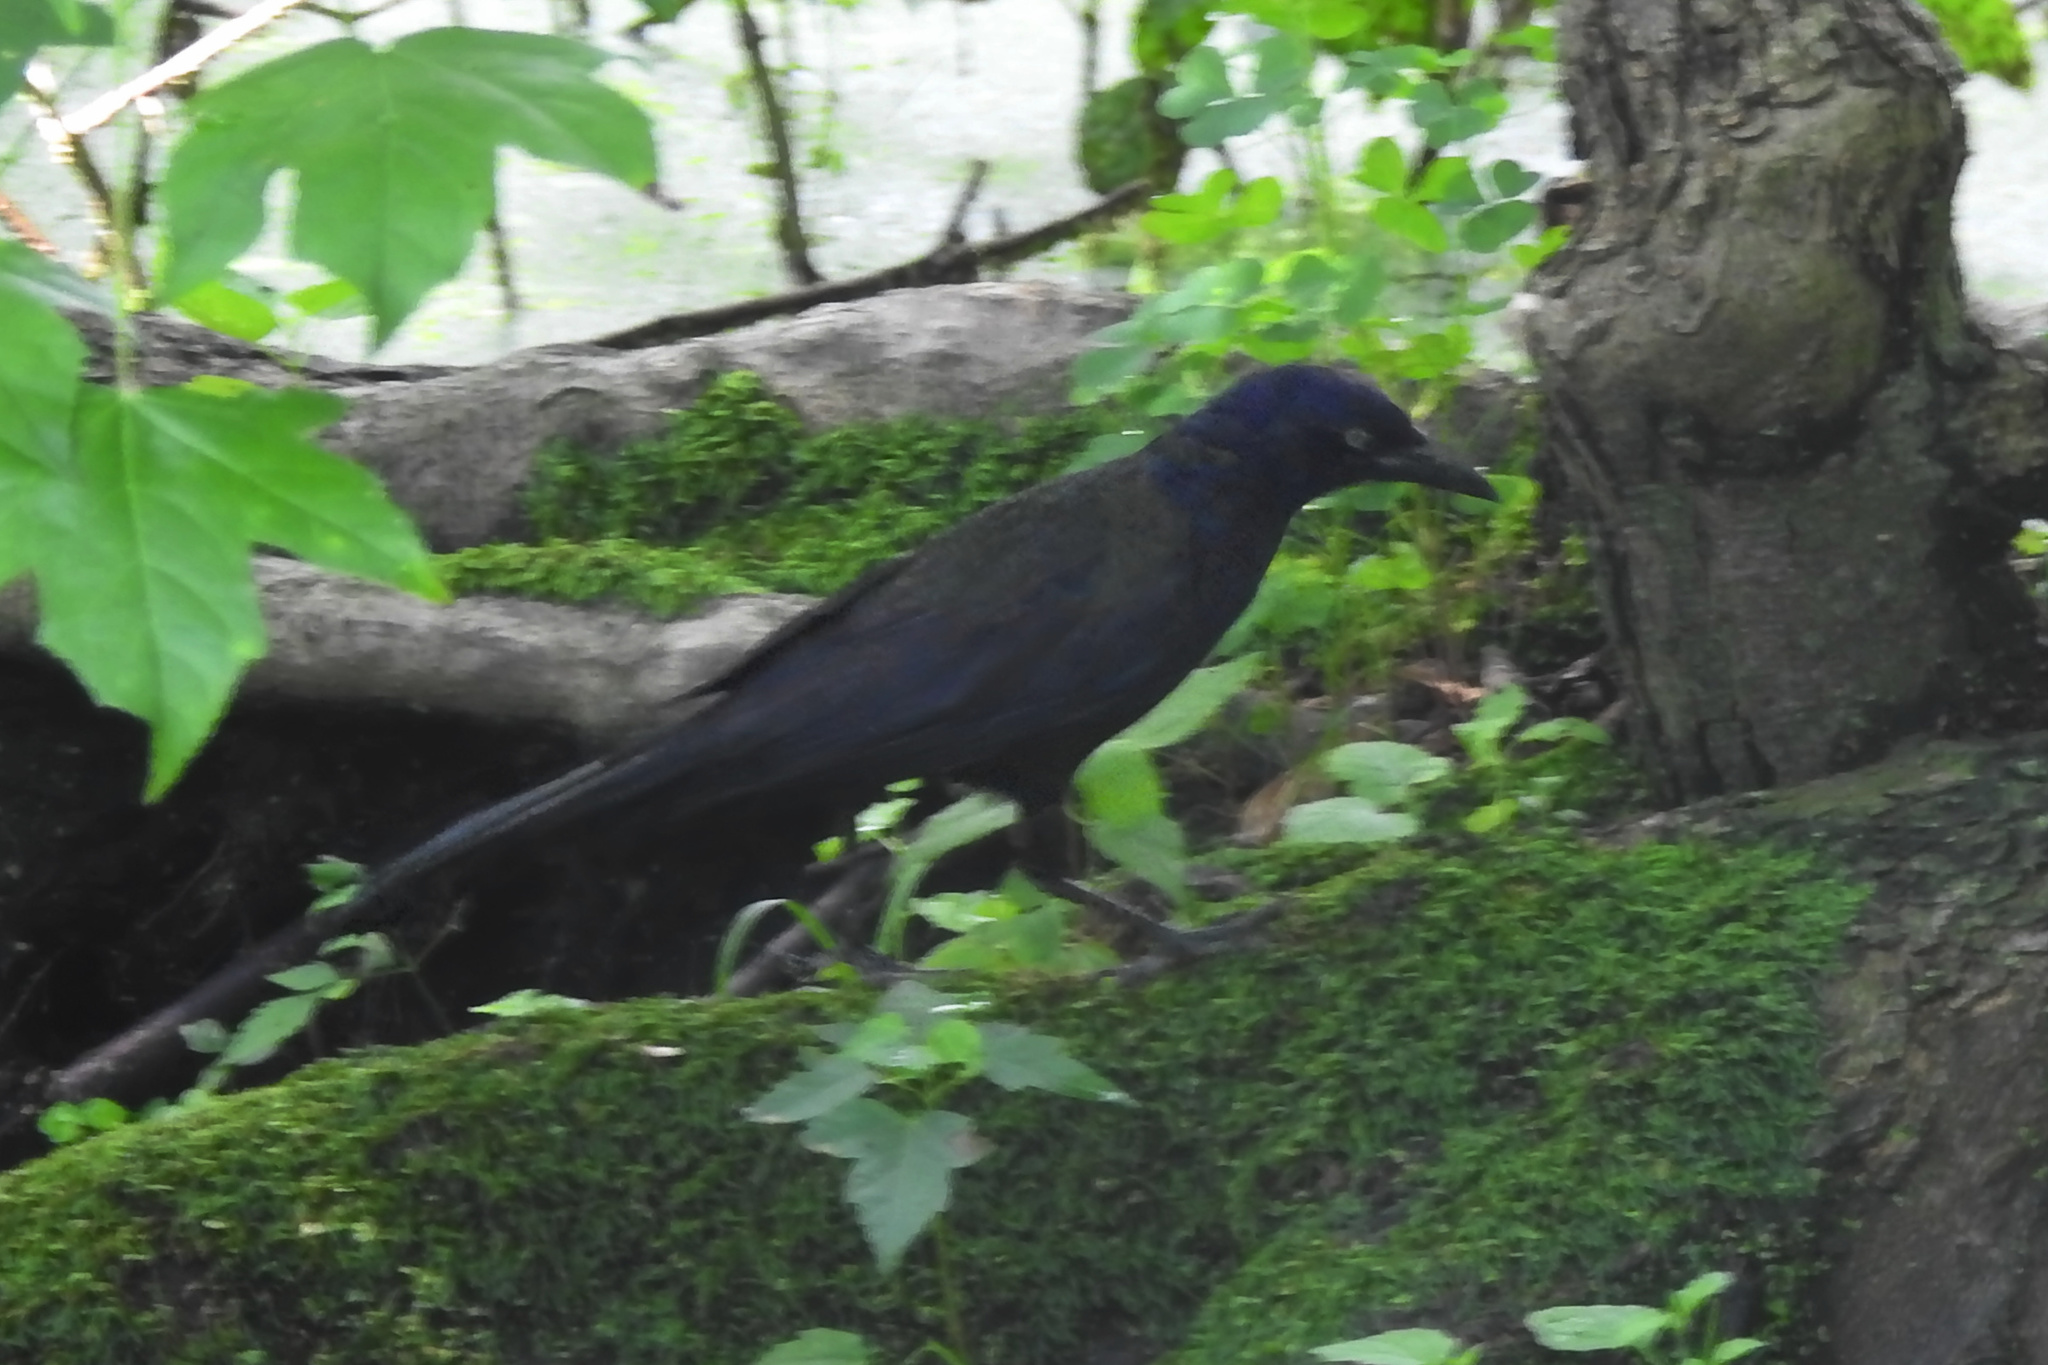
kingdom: Animalia
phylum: Chordata
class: Aves
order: Passeriformes
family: Icteridae
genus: Quiscalus
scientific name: Quiscalus quiscula
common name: Common grackle
